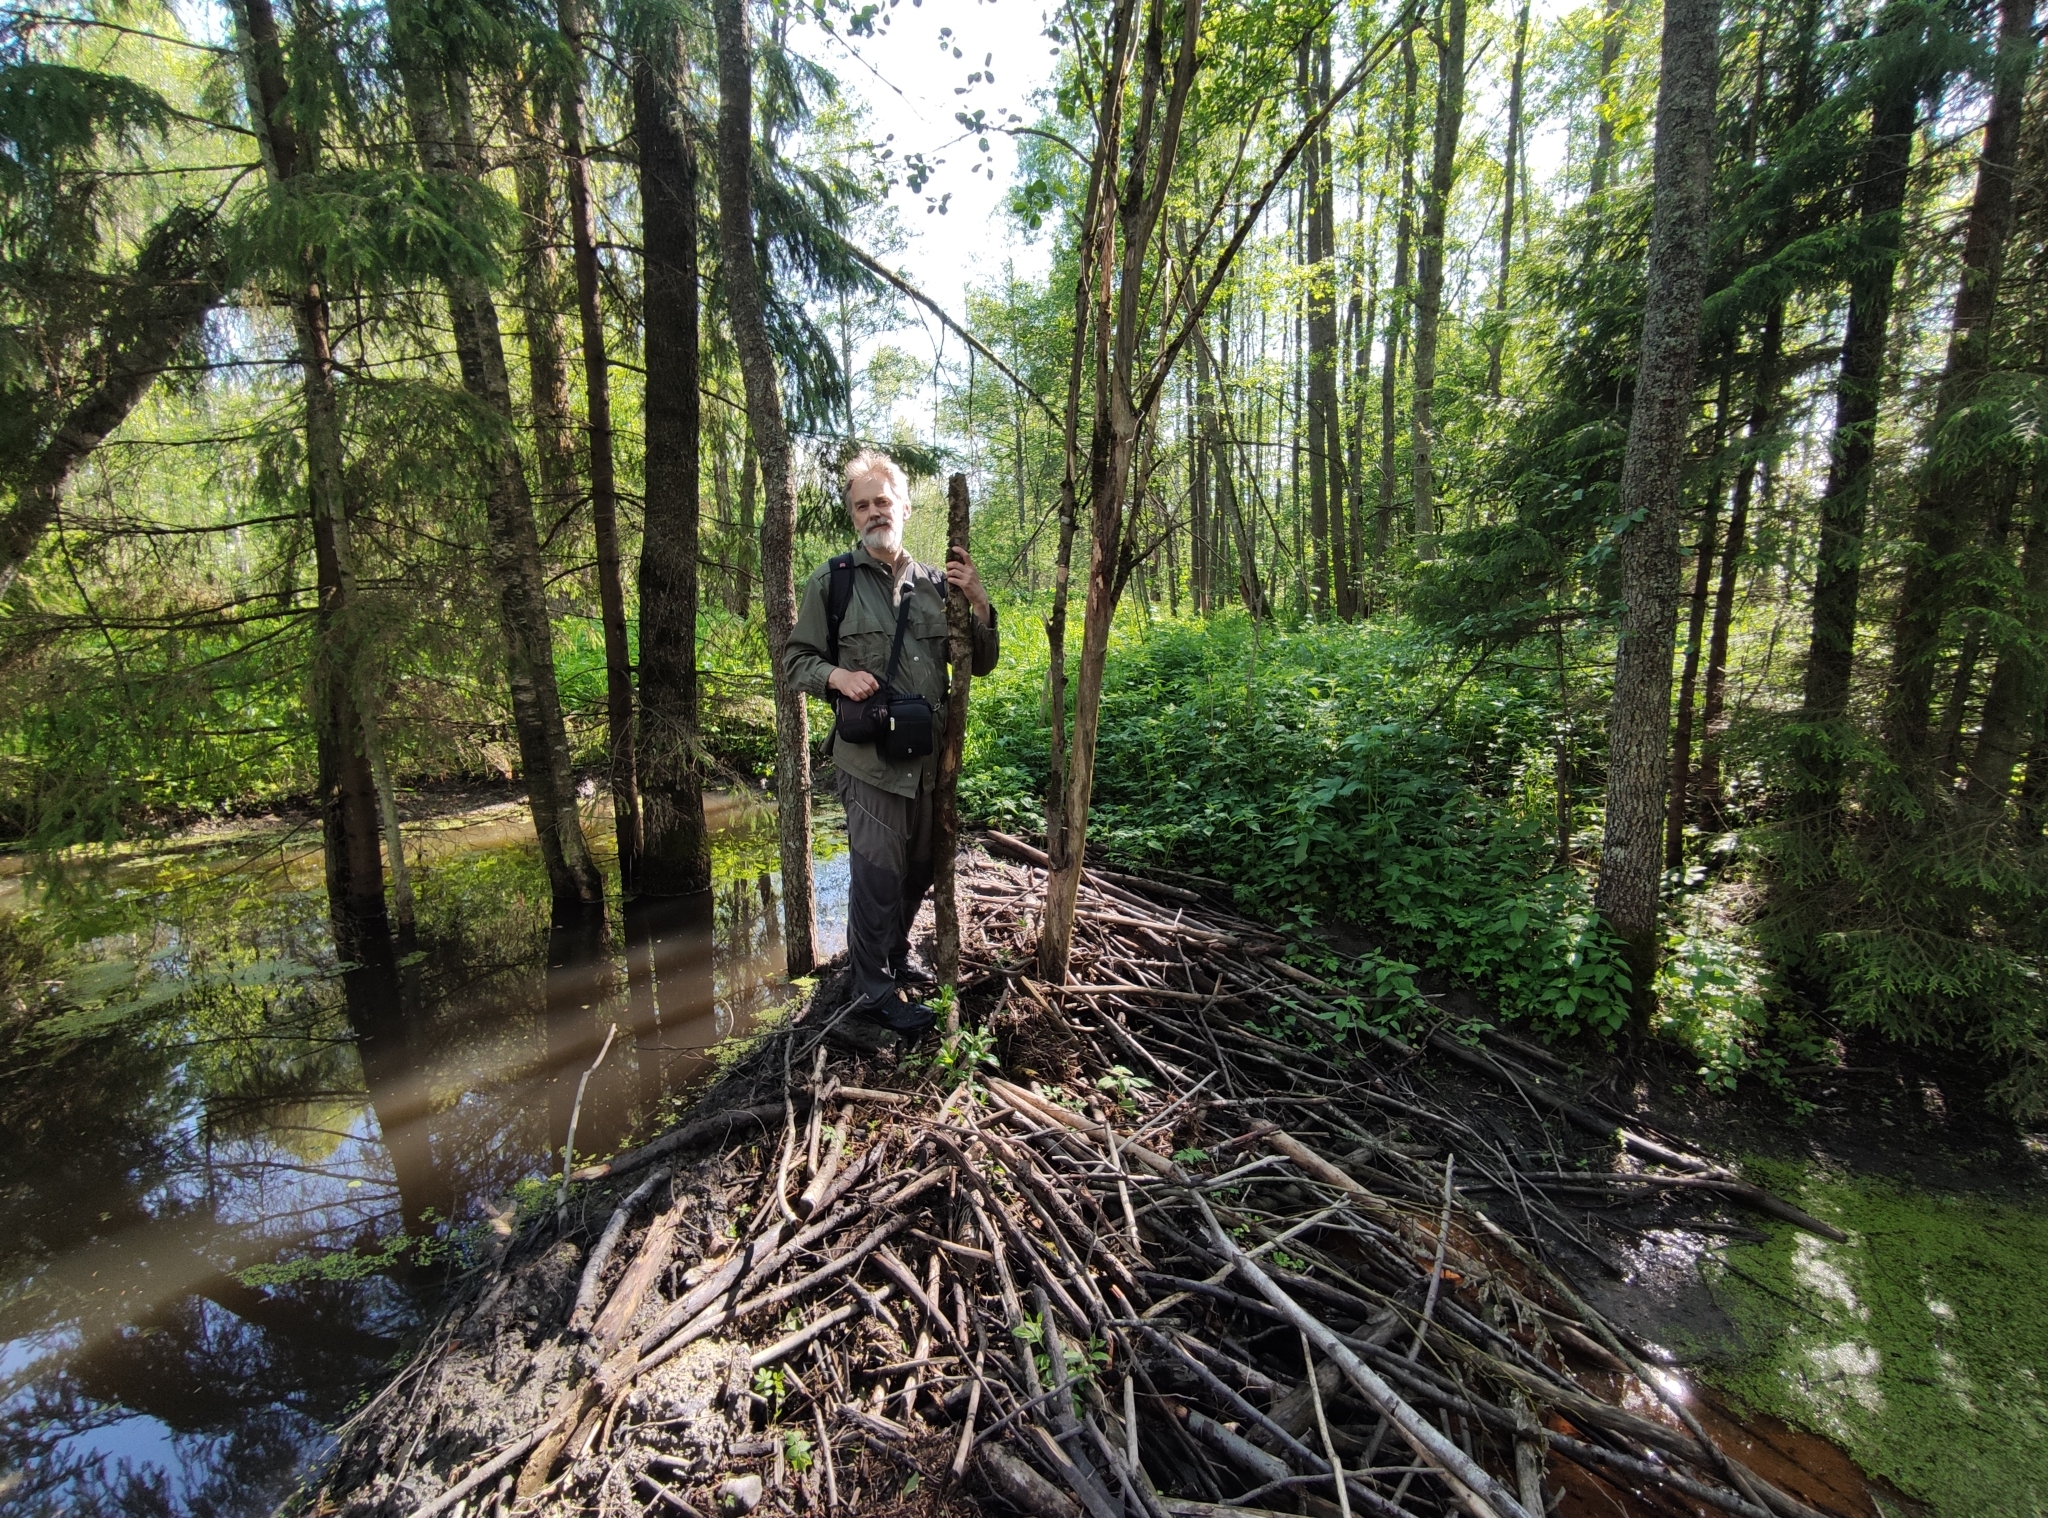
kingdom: Animalia
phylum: Chordata
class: Mammalia
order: Rodentia
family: Castoridae
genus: Castor
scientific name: Castor fiber
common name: Eurasian beaver
